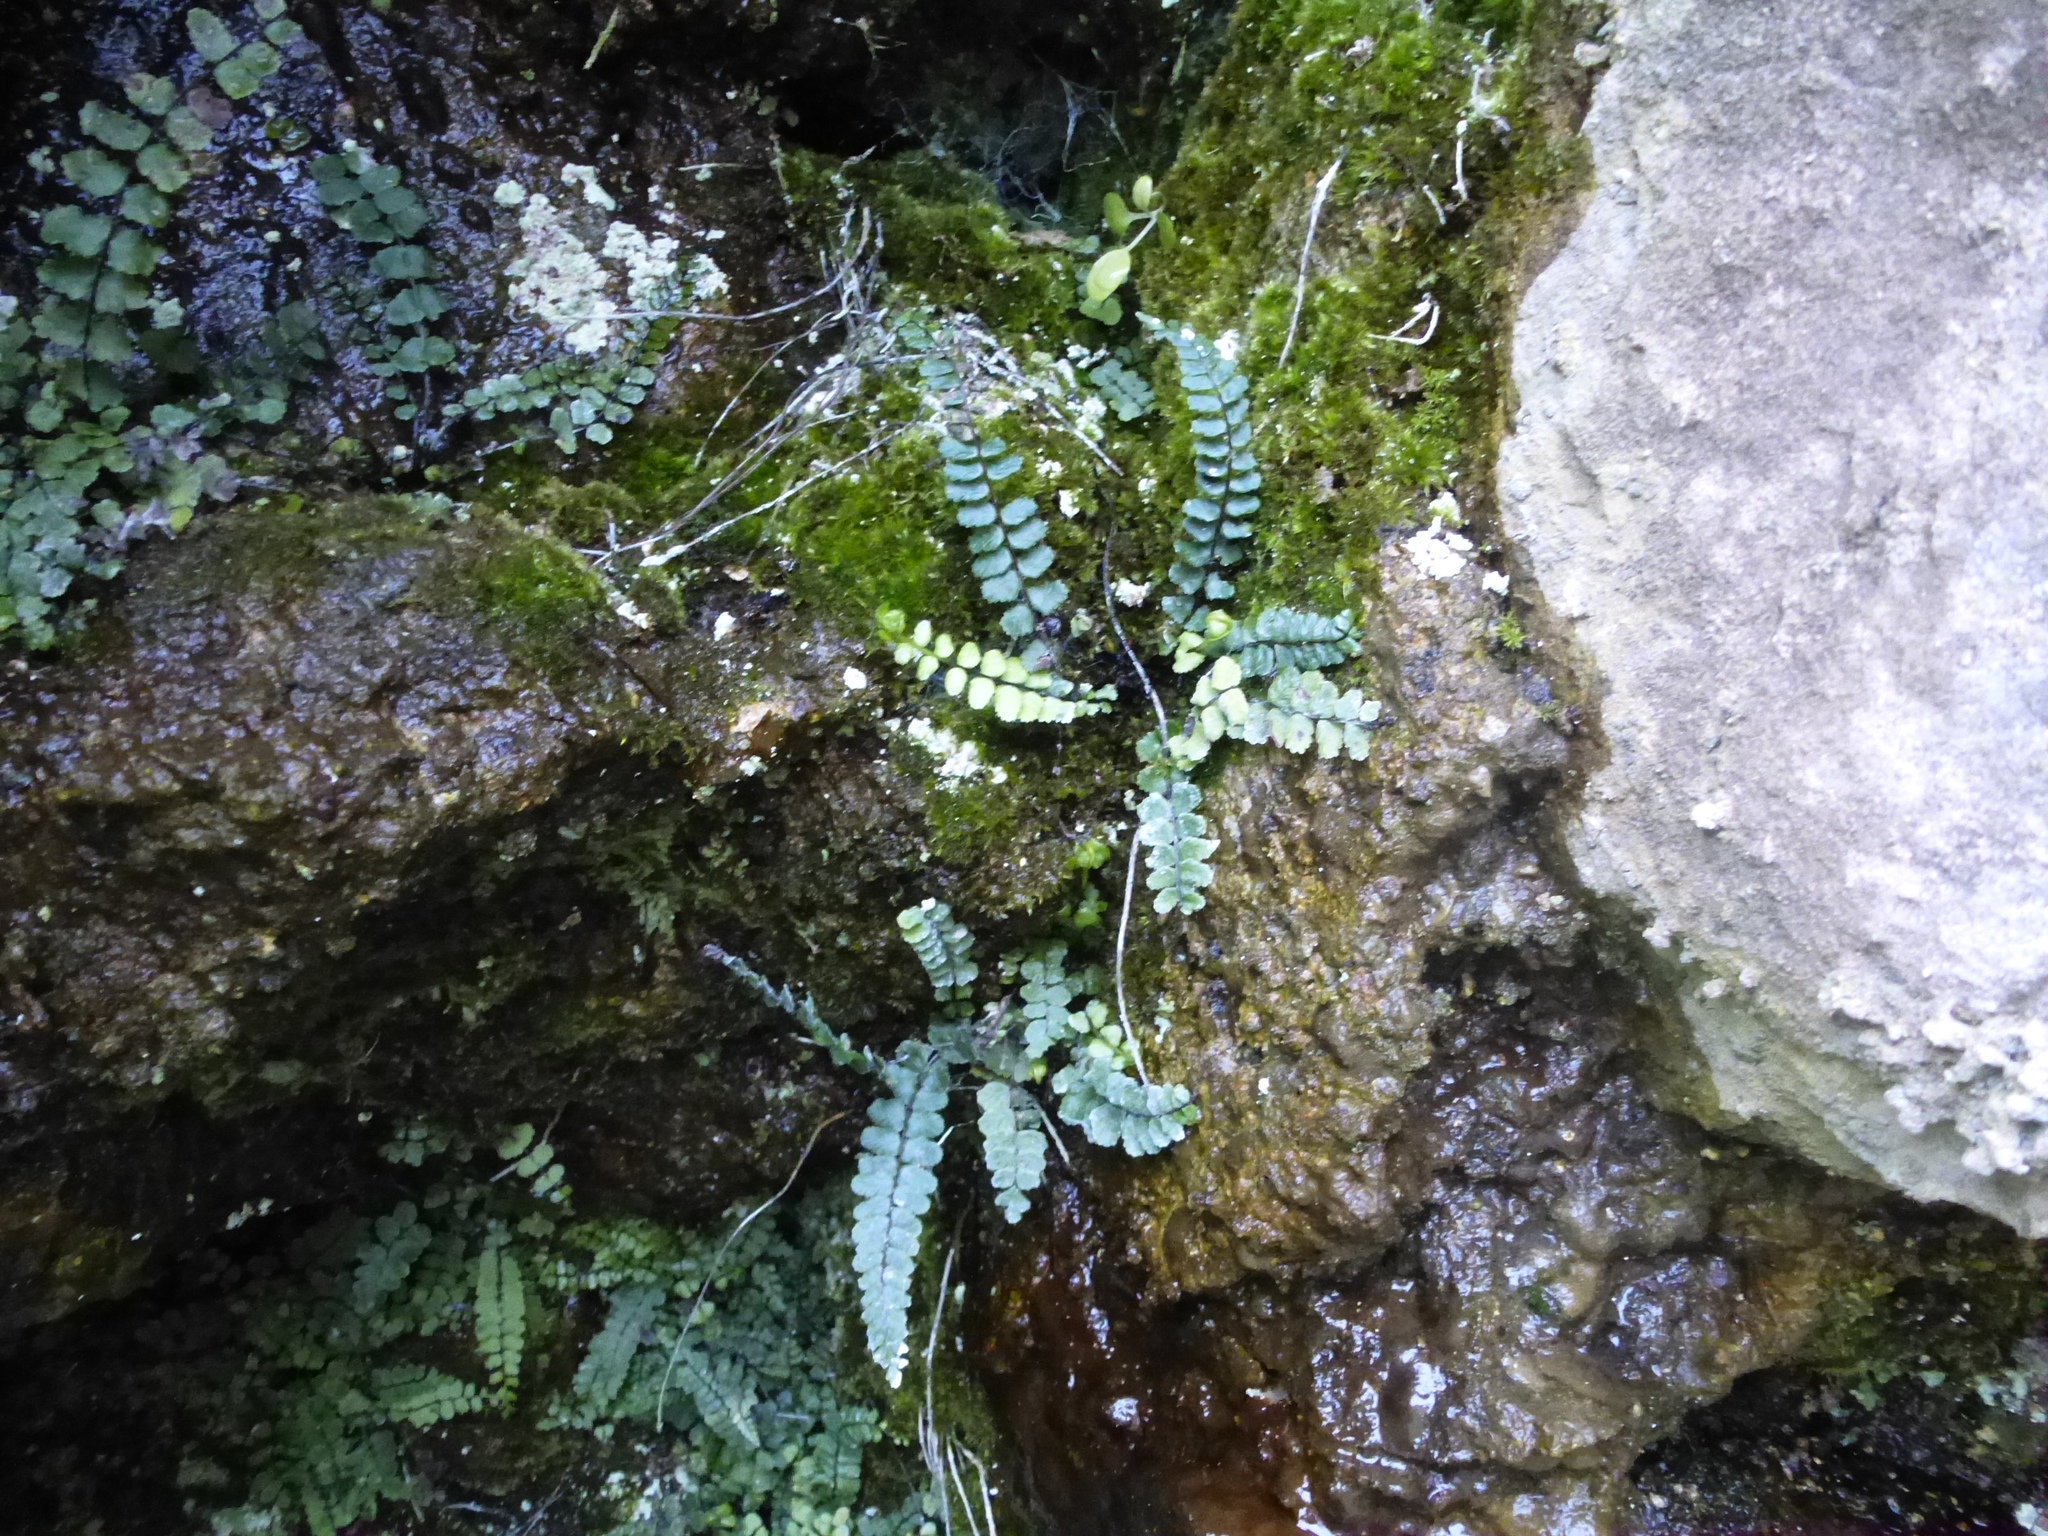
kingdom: Plantae
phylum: Tracheophyta
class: Polypodiopsida
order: Polypodiales
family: Aspleniaceae
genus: Asplenium
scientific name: Asplenium trichomanes
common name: Maidenhair spleenwort
